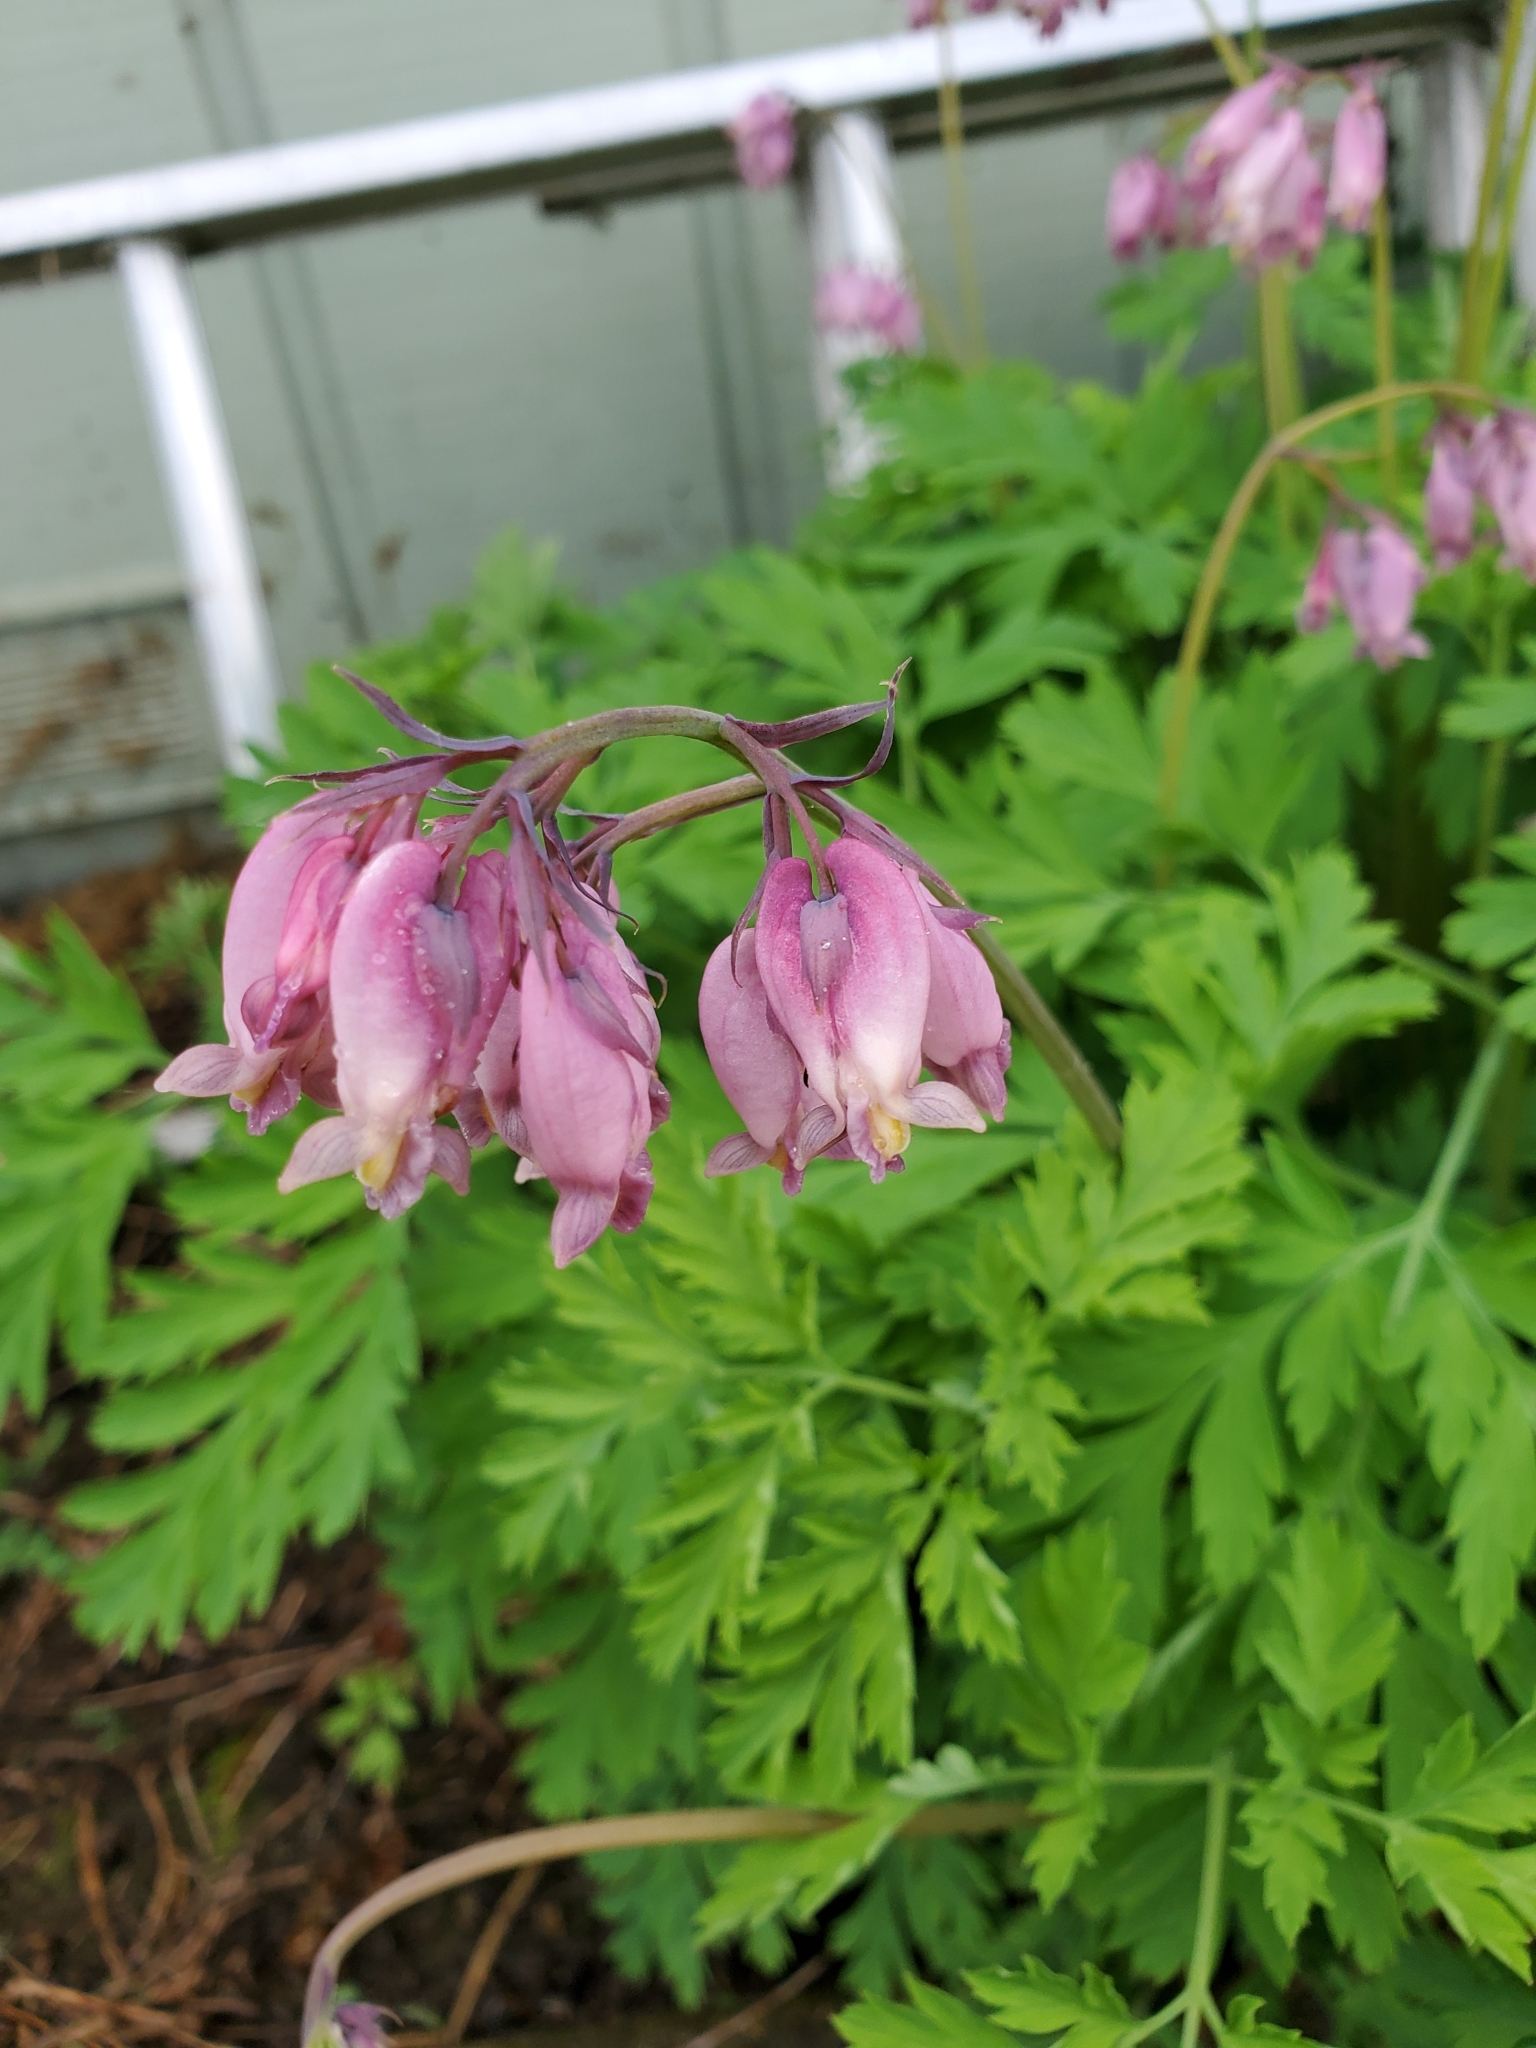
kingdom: Plantae
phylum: Tracheophyta
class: Magnoliopsida
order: Ranunculales
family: Papaveraceae
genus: Dicentra
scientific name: Dicentra formosa
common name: Bleeding-heart
